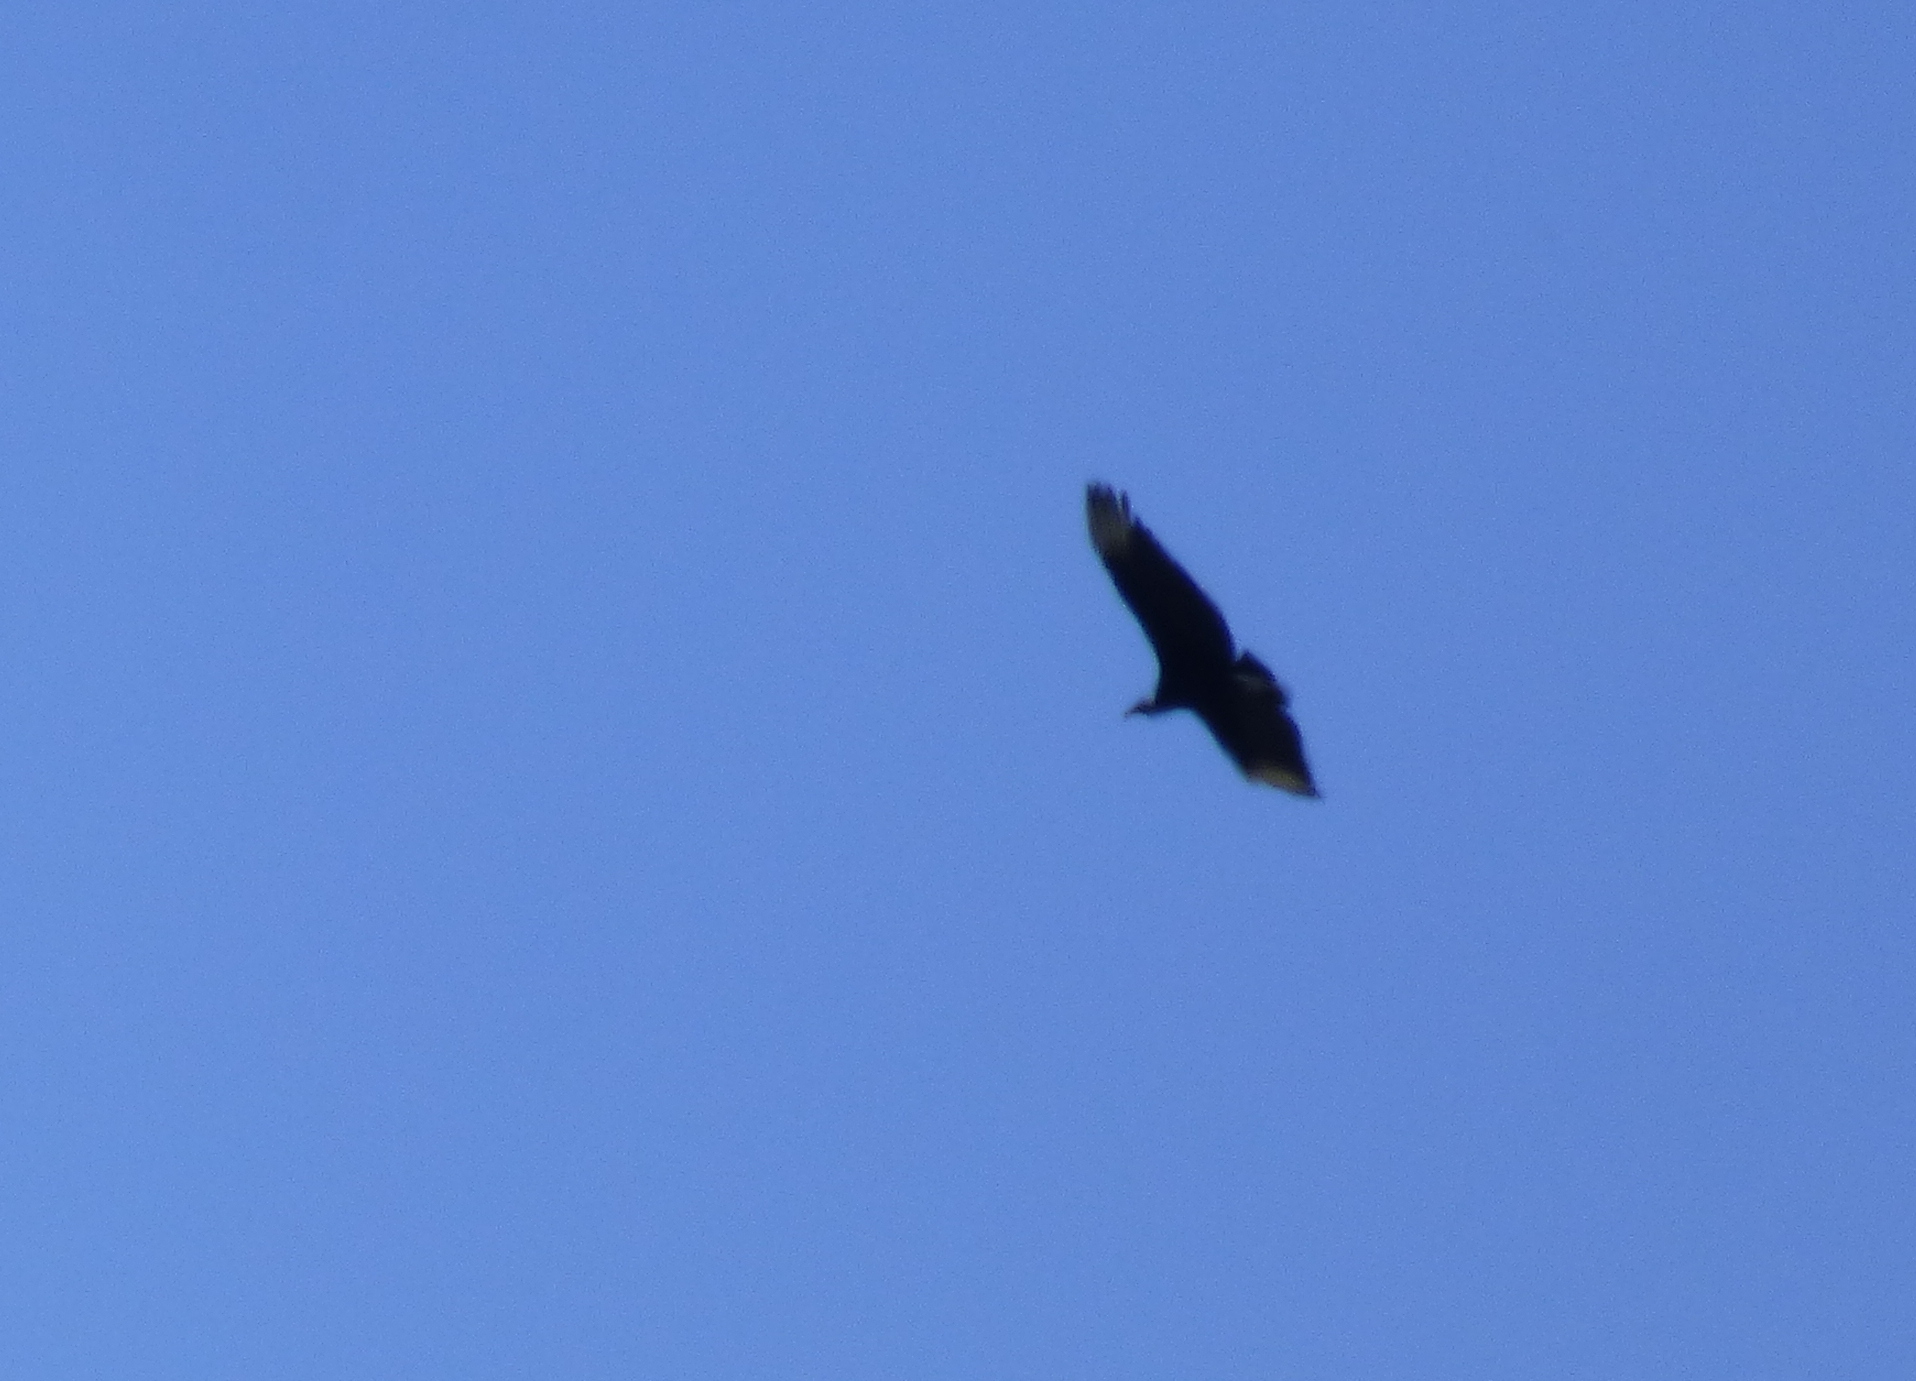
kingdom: Animalia
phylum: Chordata
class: Aves
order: Accipitriformes
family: Cathartidae
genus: Coragyps
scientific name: Coragyps atratus
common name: Black vulture
